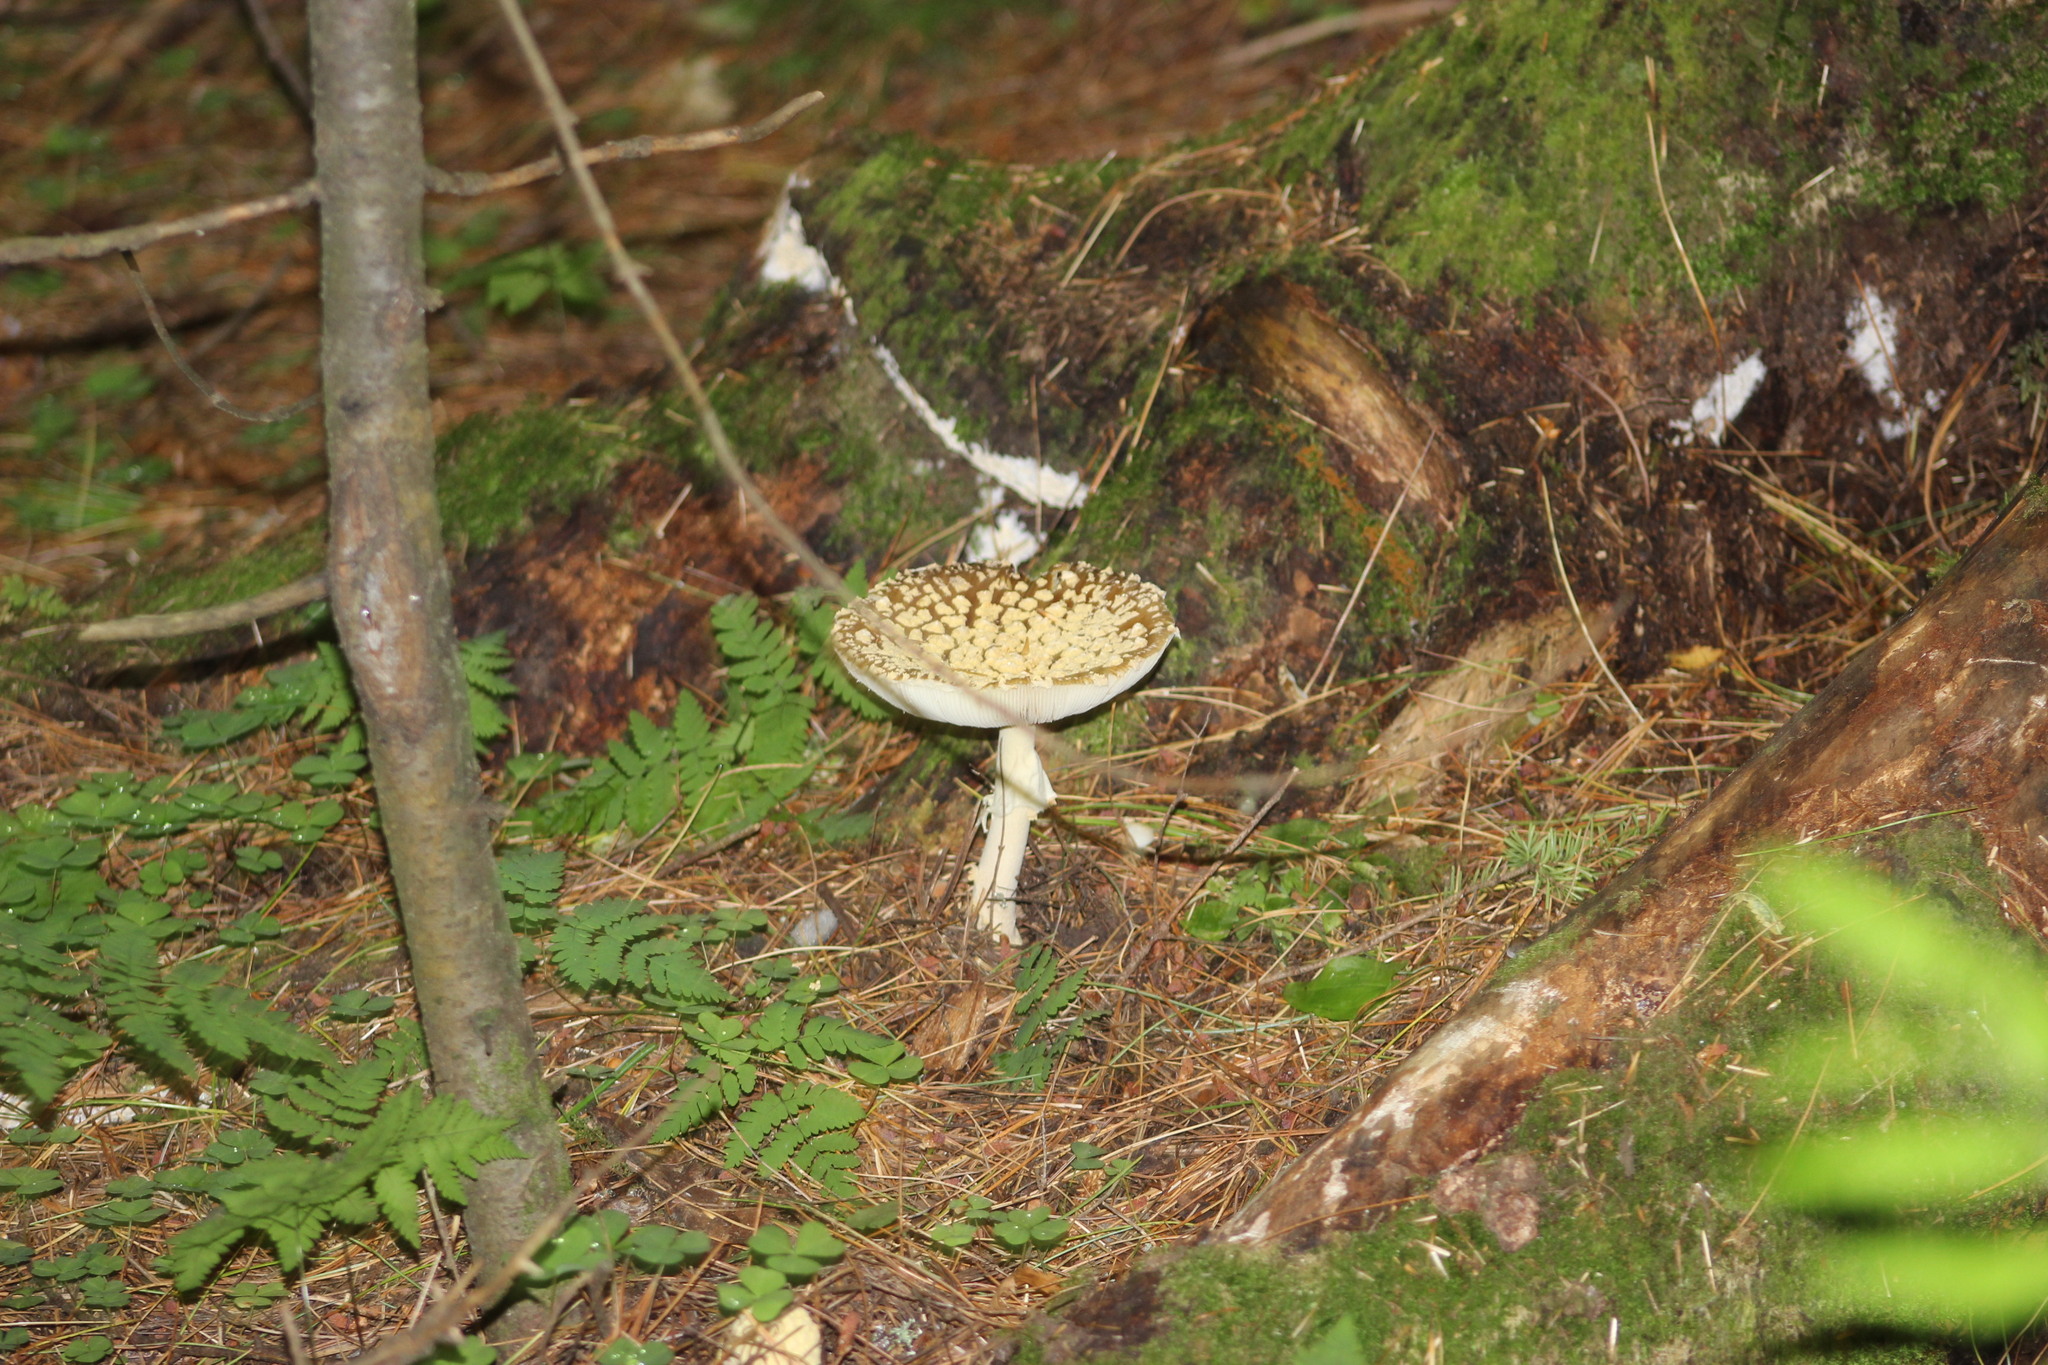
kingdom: Fungi
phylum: Basidiomycota
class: Agaricomycetes
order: Agaricales
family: Amanitaceae
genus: Amanita
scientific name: Amanita regalis
